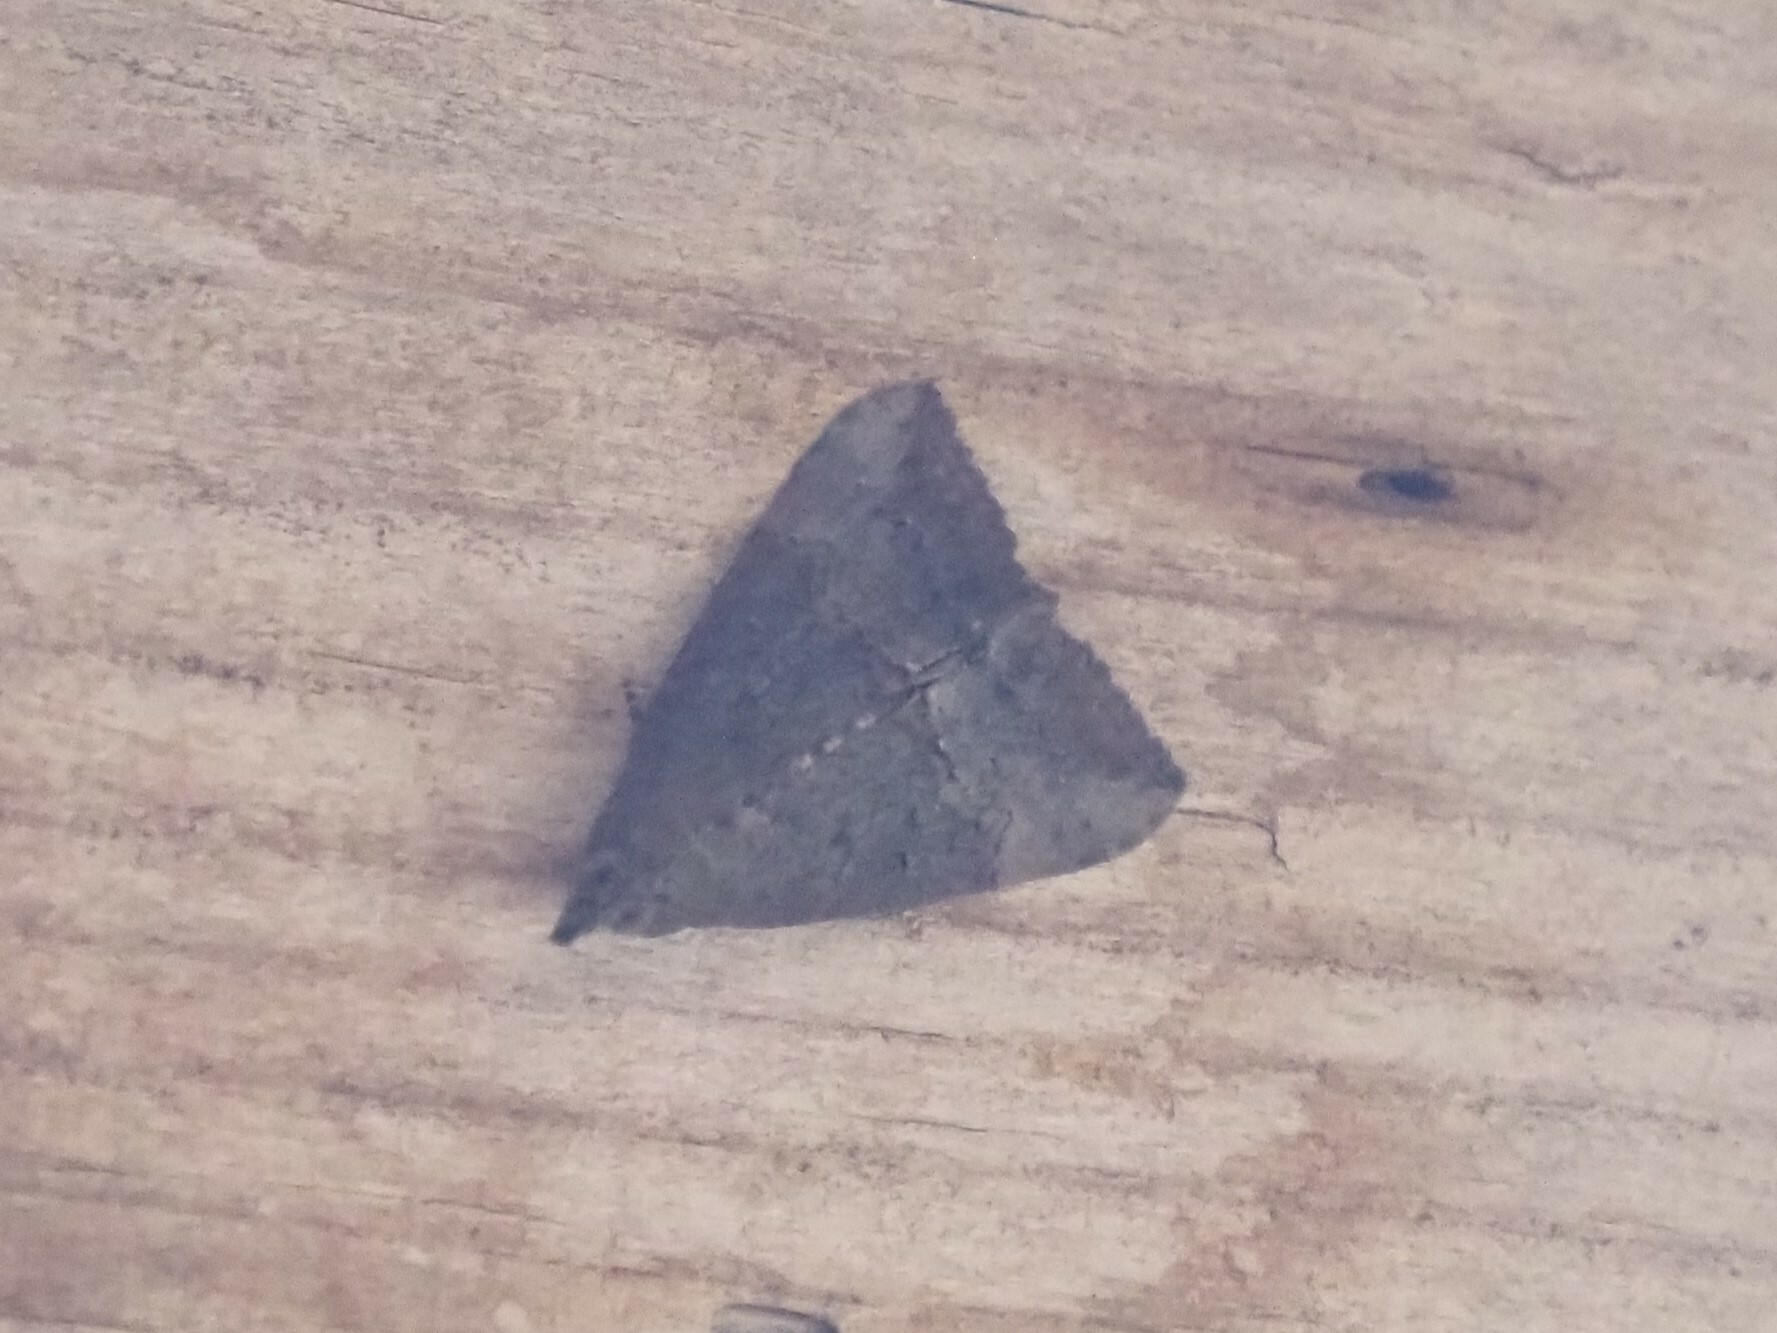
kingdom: Animalia
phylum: Arthropoda
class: Insecta
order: Lepidoptera
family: Erebidae
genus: Hypena
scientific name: Hypena scabra
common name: Green cloverworm
